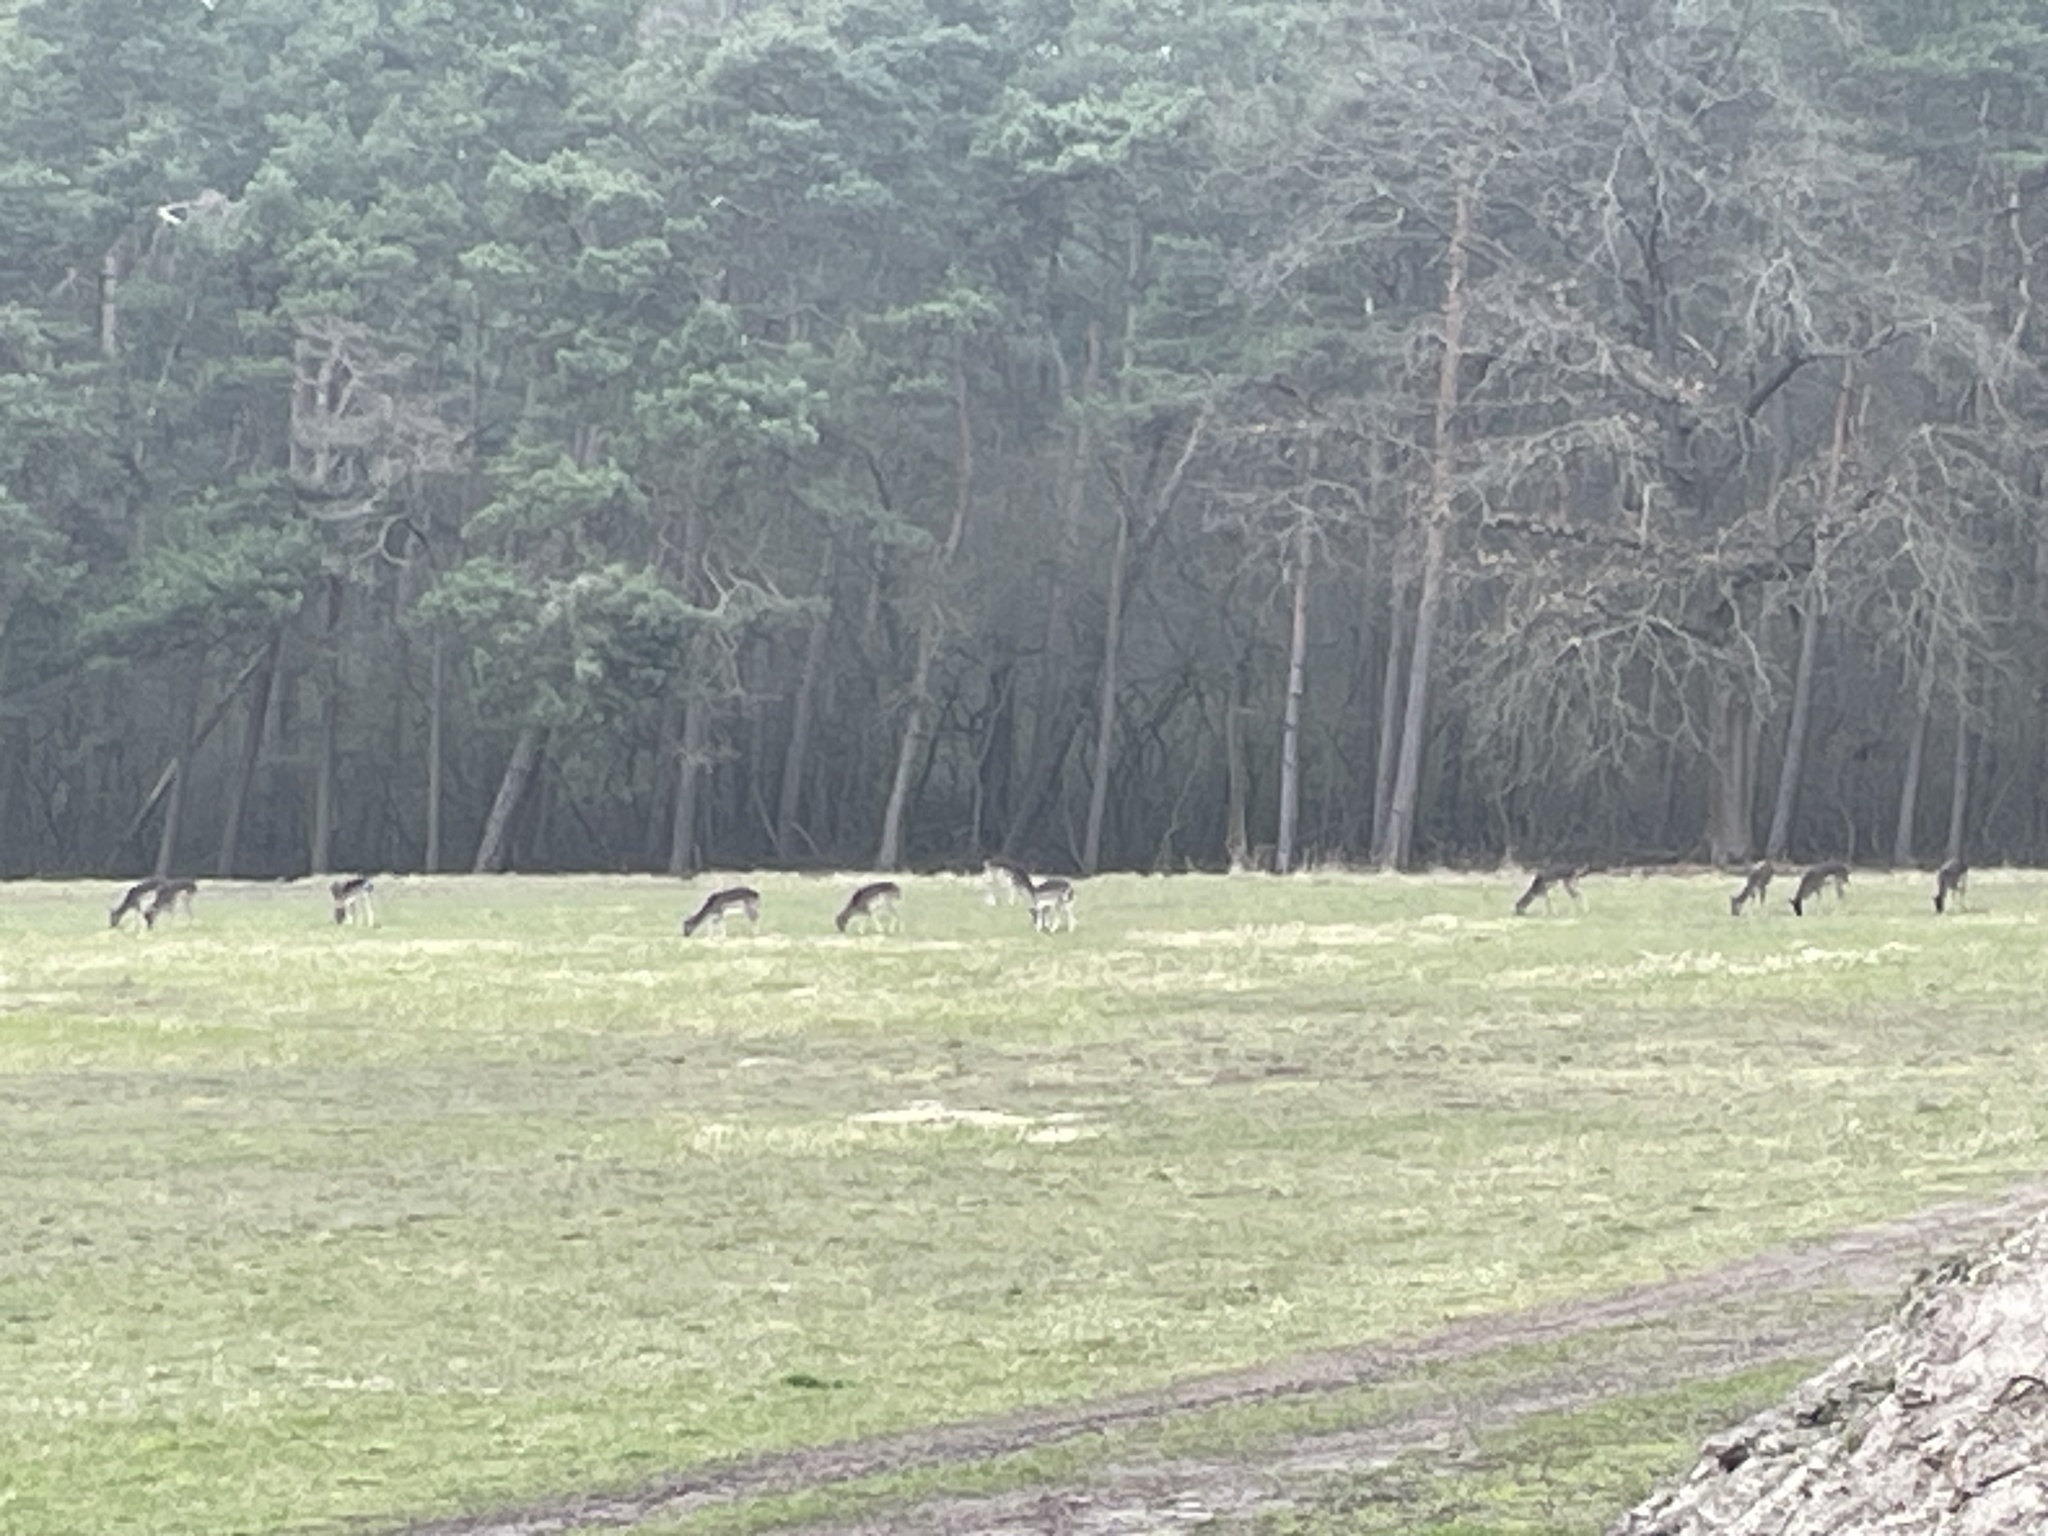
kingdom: Animalia
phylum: Chordata
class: Mammalia
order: Artiodactyla
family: Cervidae
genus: Dama
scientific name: Dama dama
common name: Fallow deer
